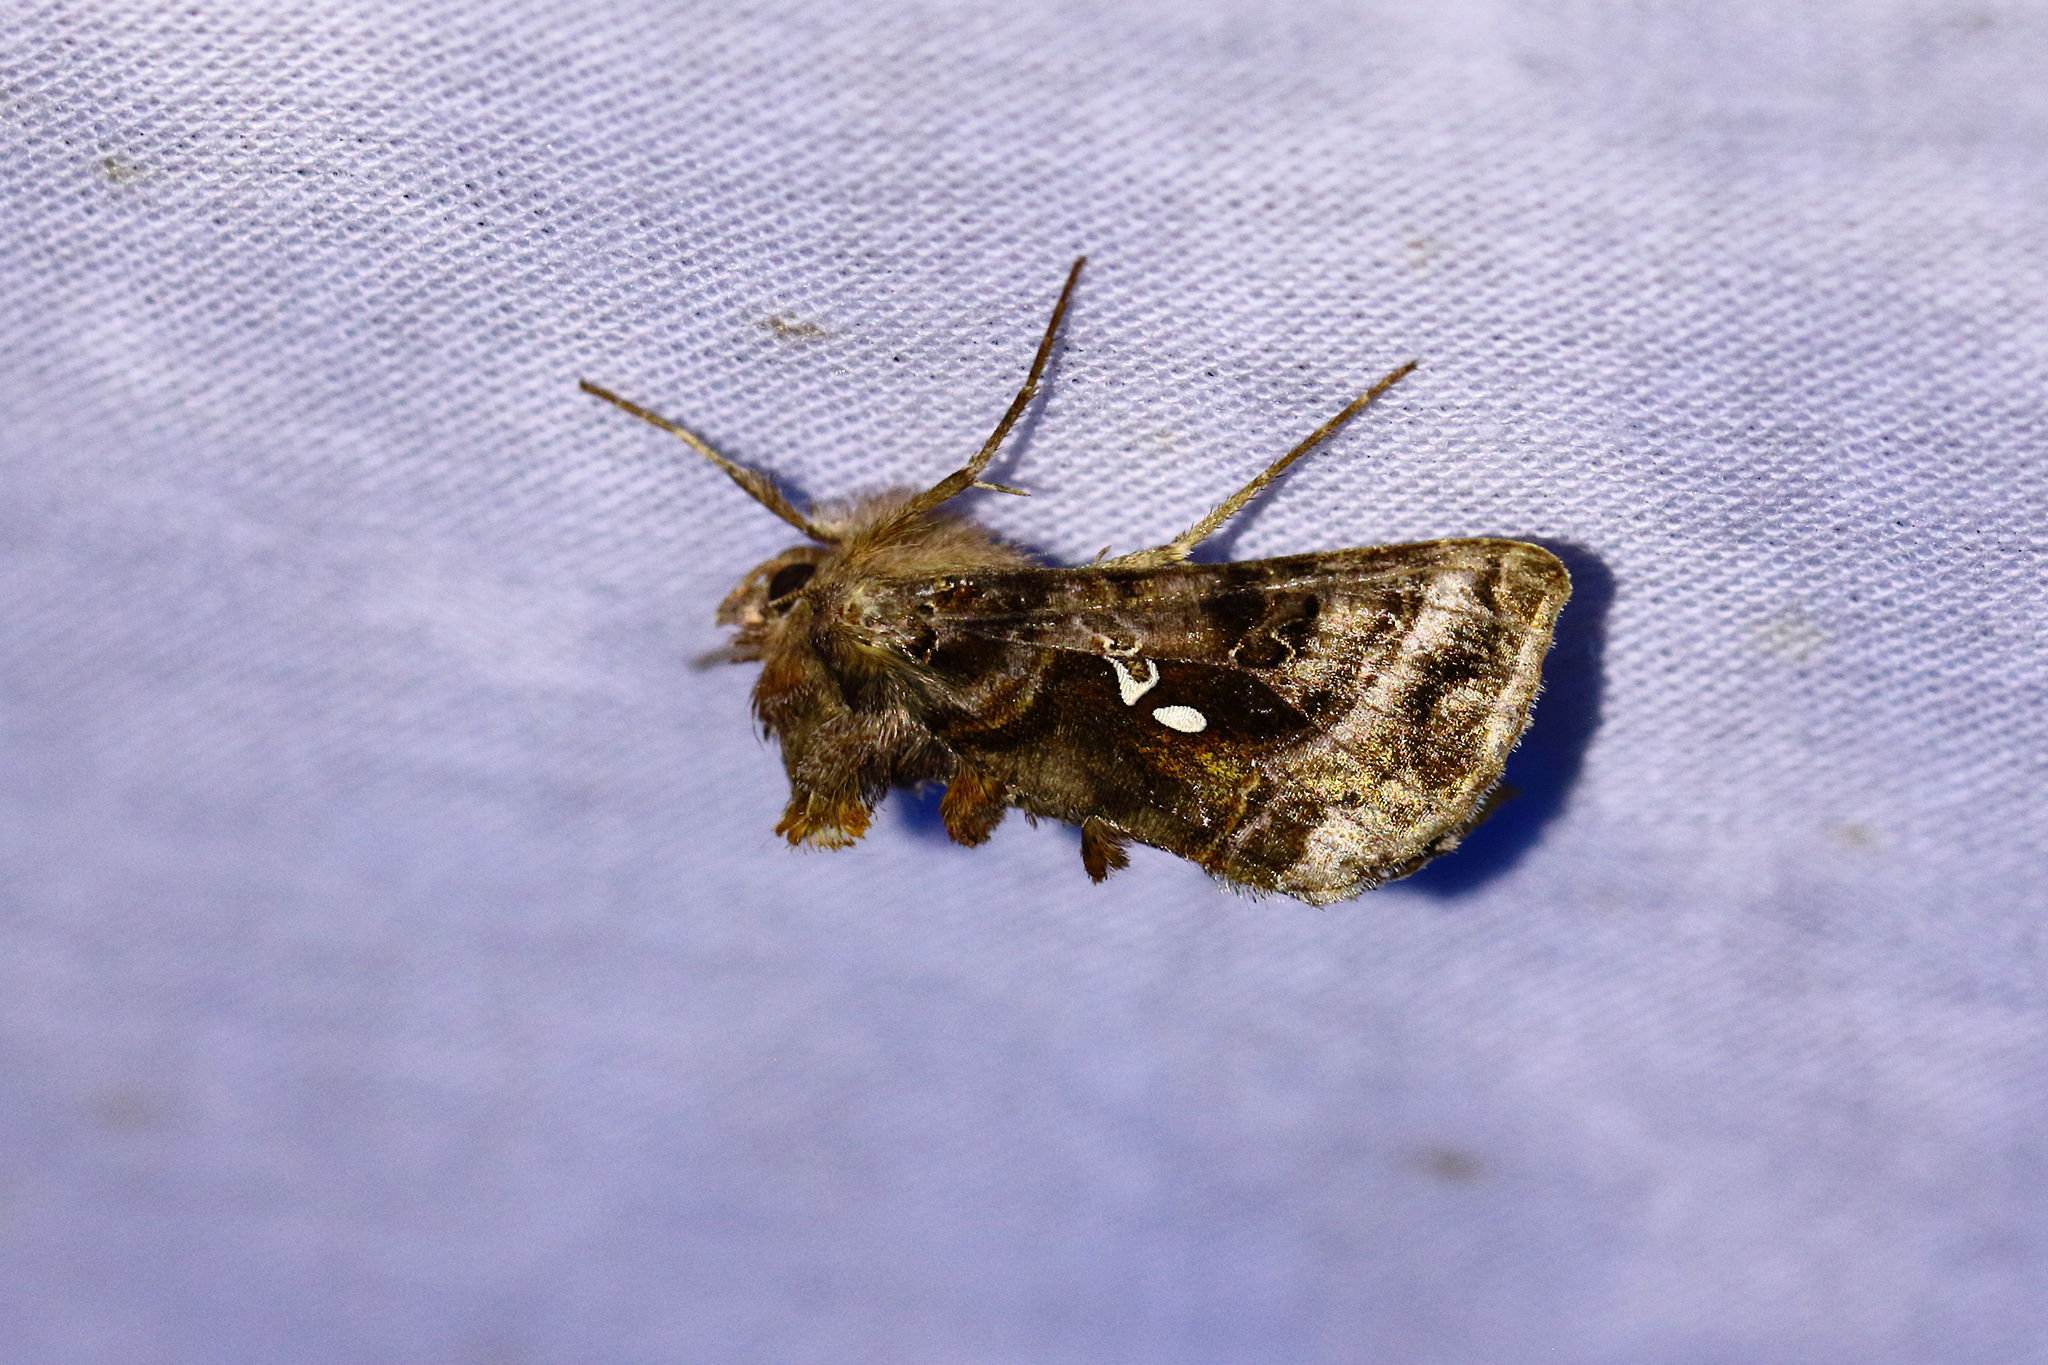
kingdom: Animalia
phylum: Arthropoda
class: Insecta
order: Lepidoptera
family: Noctuidae
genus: Autographa
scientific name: Autographa pulchrina
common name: Beautiful golden y
